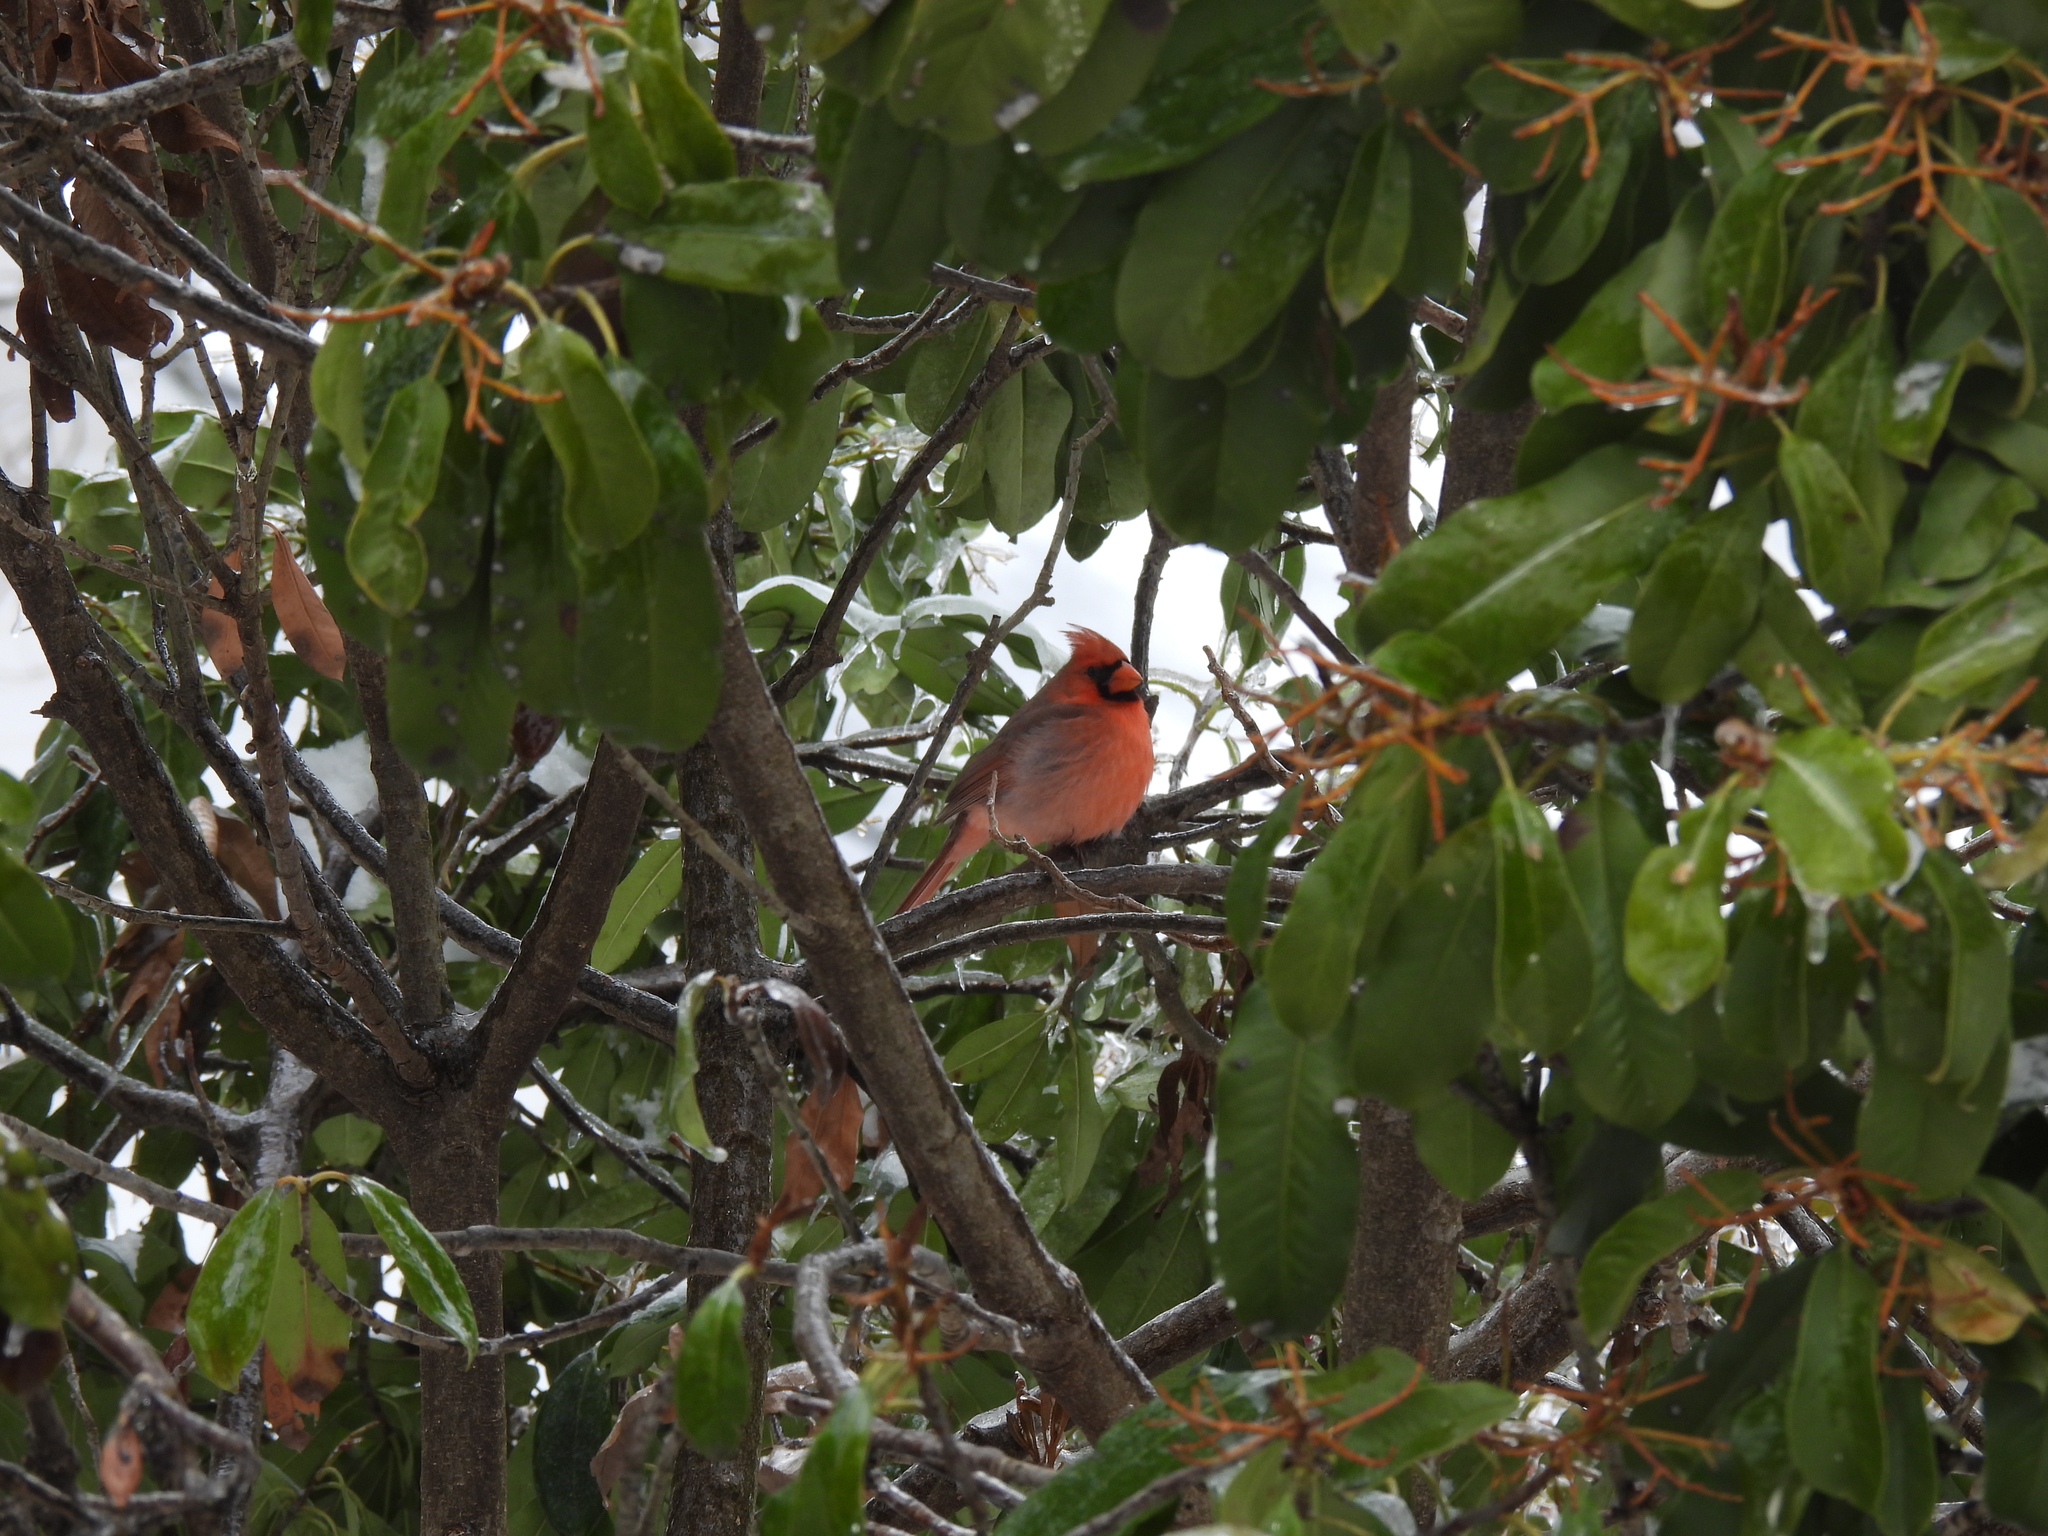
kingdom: Animalia
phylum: Chordata
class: Aves
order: Passeriformes
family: Cardinalidae
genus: Cardinalis
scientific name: Cardinalis cardinalis
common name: Northern cardinal
